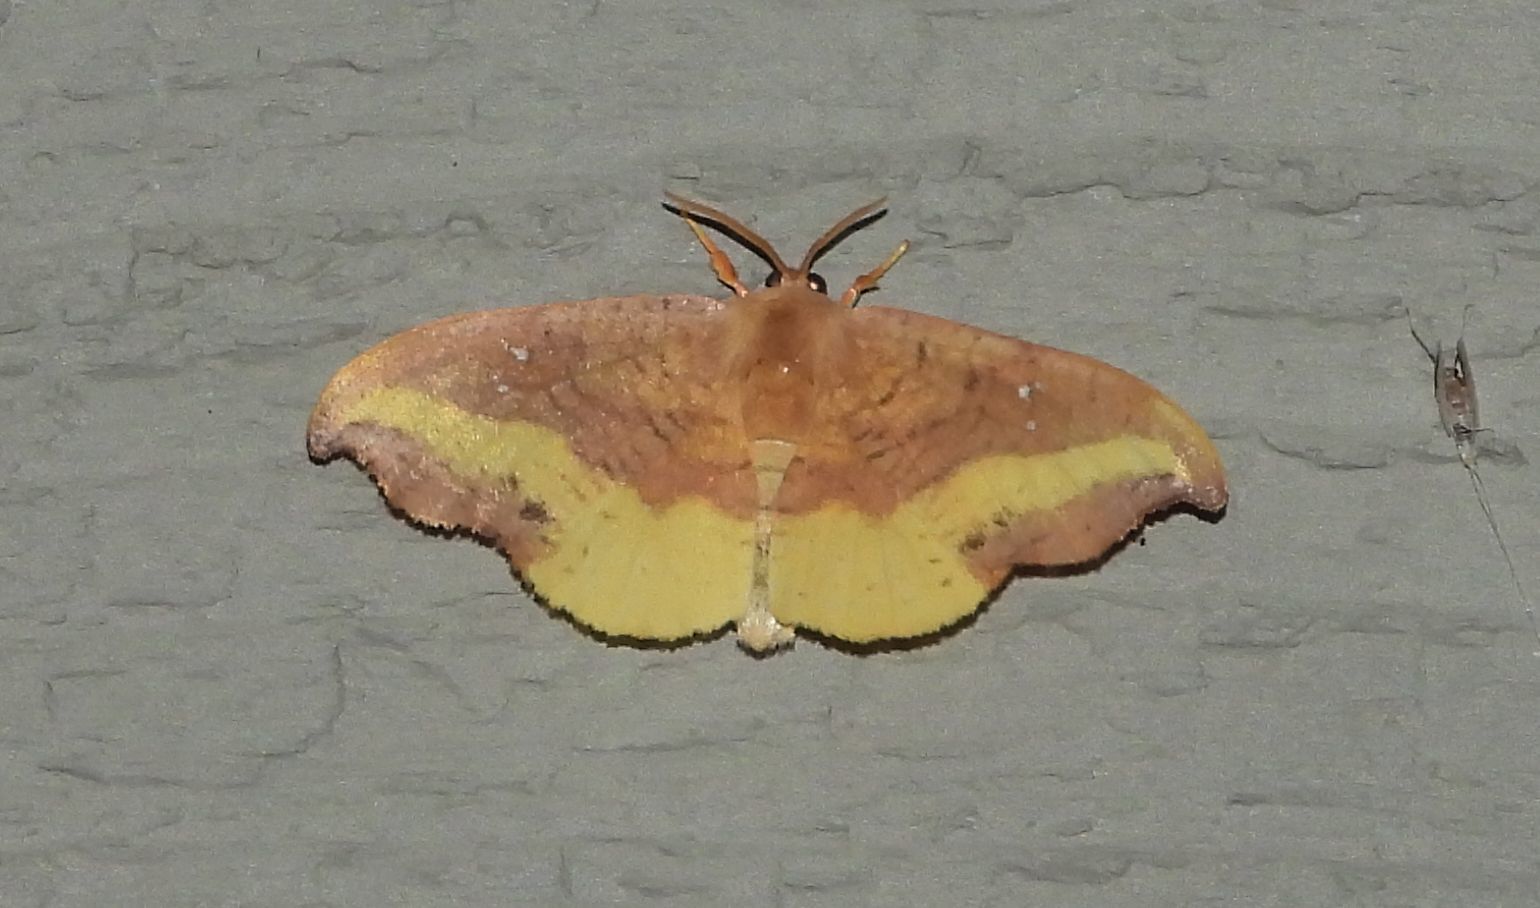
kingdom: Animalia
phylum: Arthropoda
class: Insecta
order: Lepidoptera
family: Drepanidae
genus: Oreta
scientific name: Oreta rosea
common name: Rose hooktip
